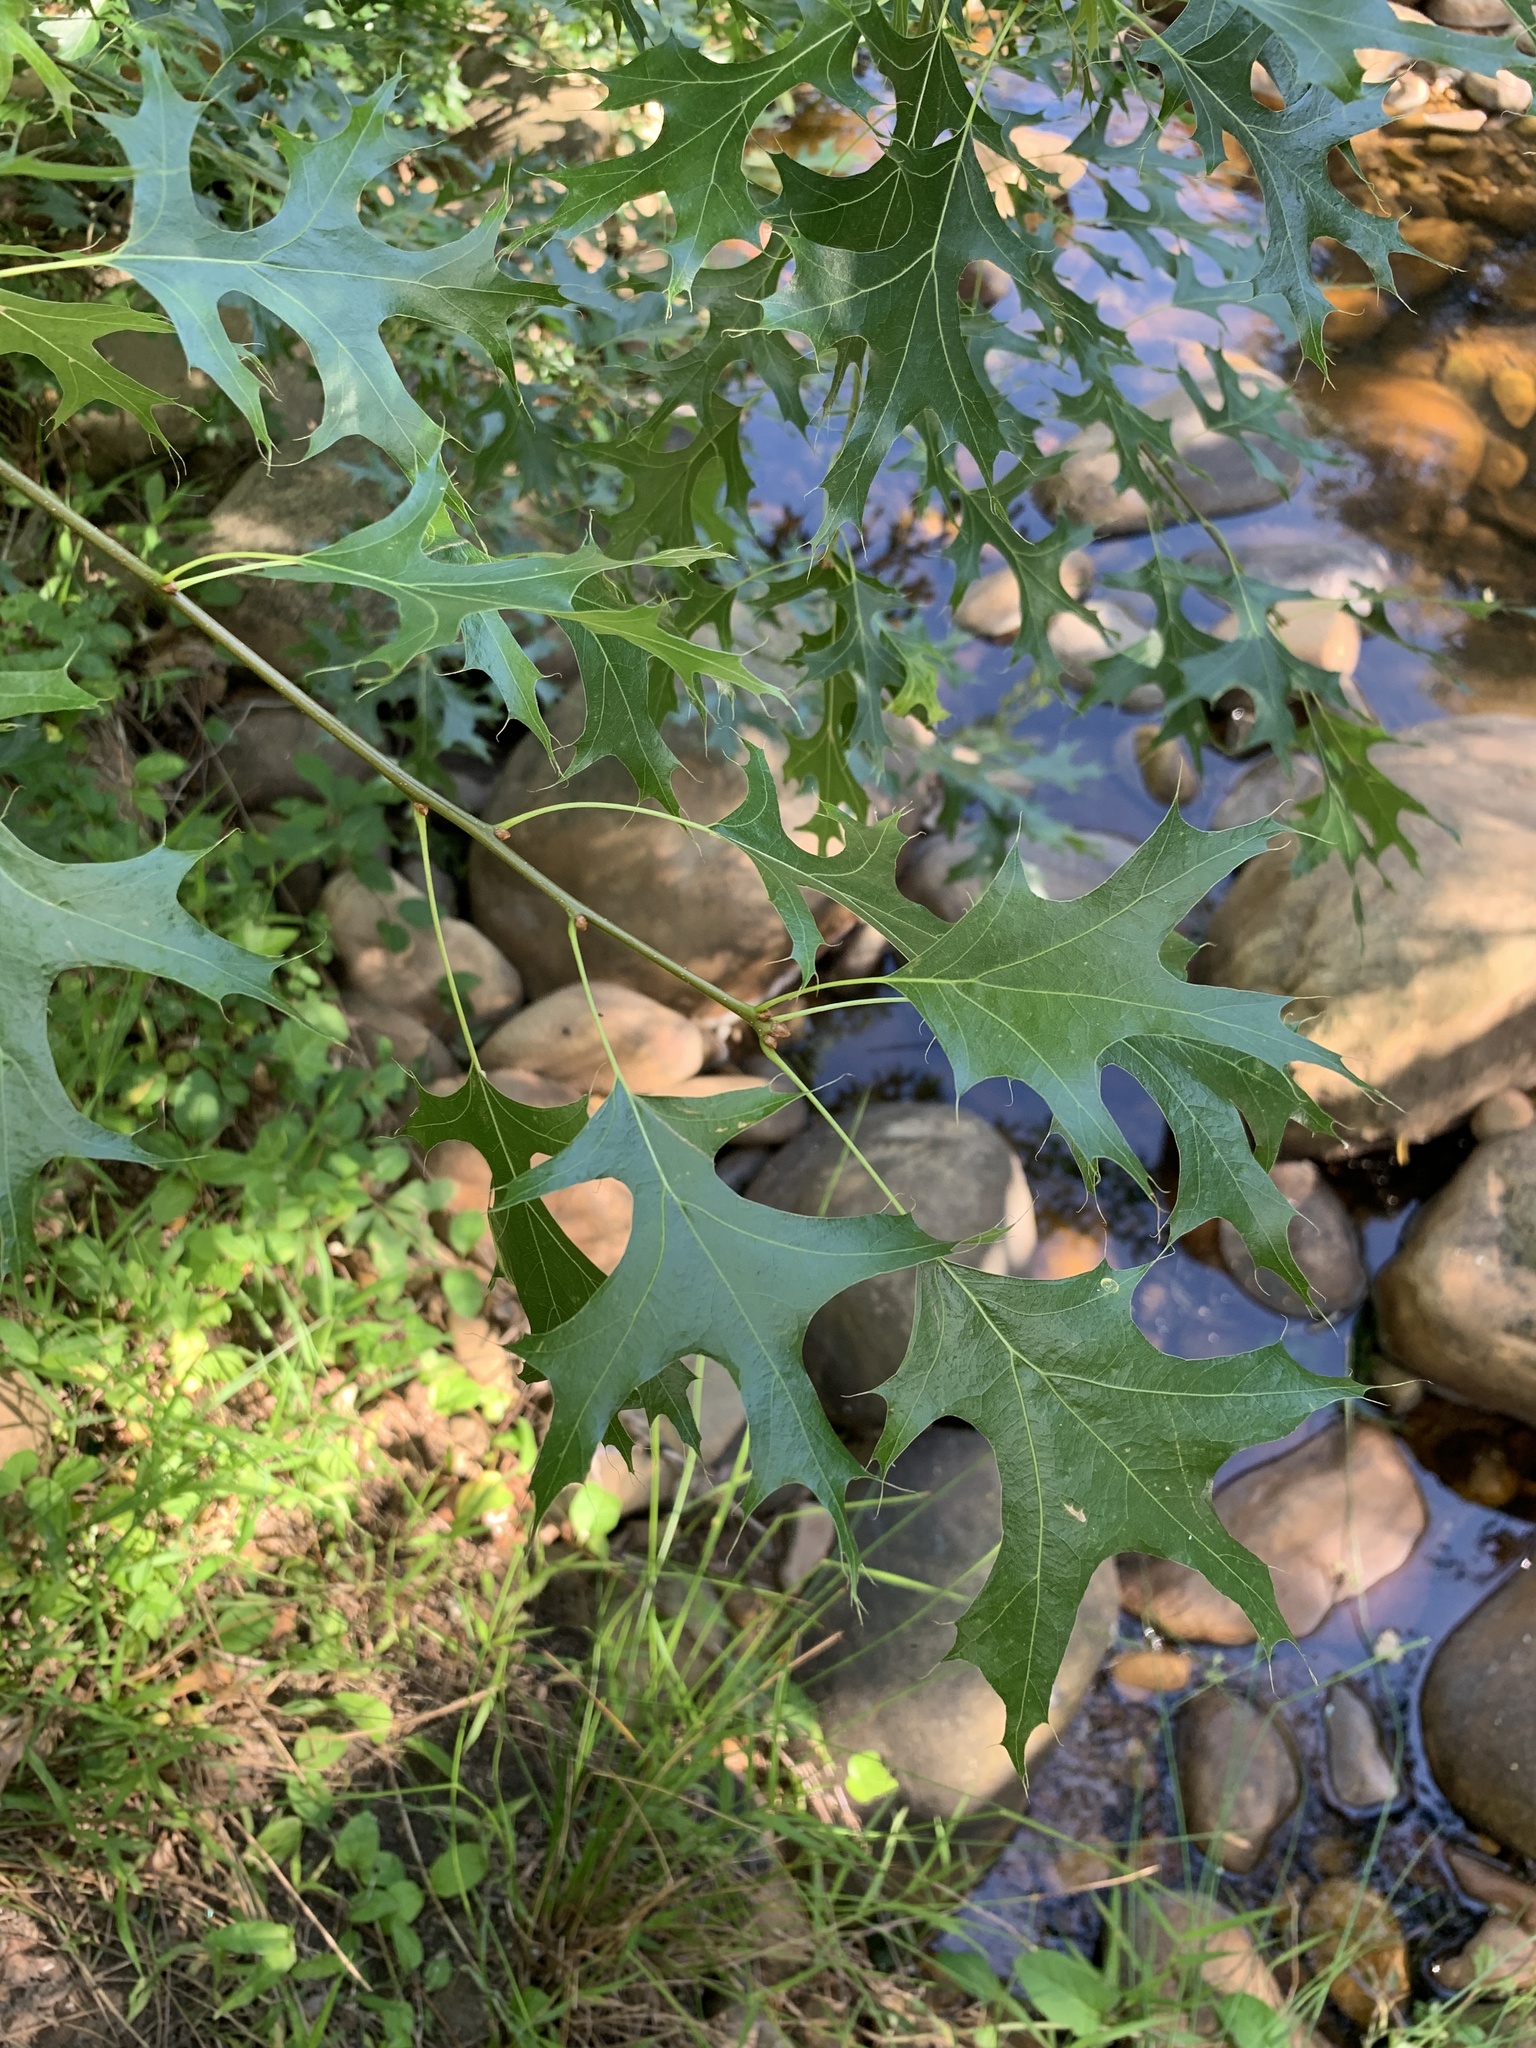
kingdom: Plantae
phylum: Tracheophyta
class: Magnoliopsida
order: Fagales
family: Fagaceae
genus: Quercus
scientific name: Quercus palustris
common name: Pin oak
